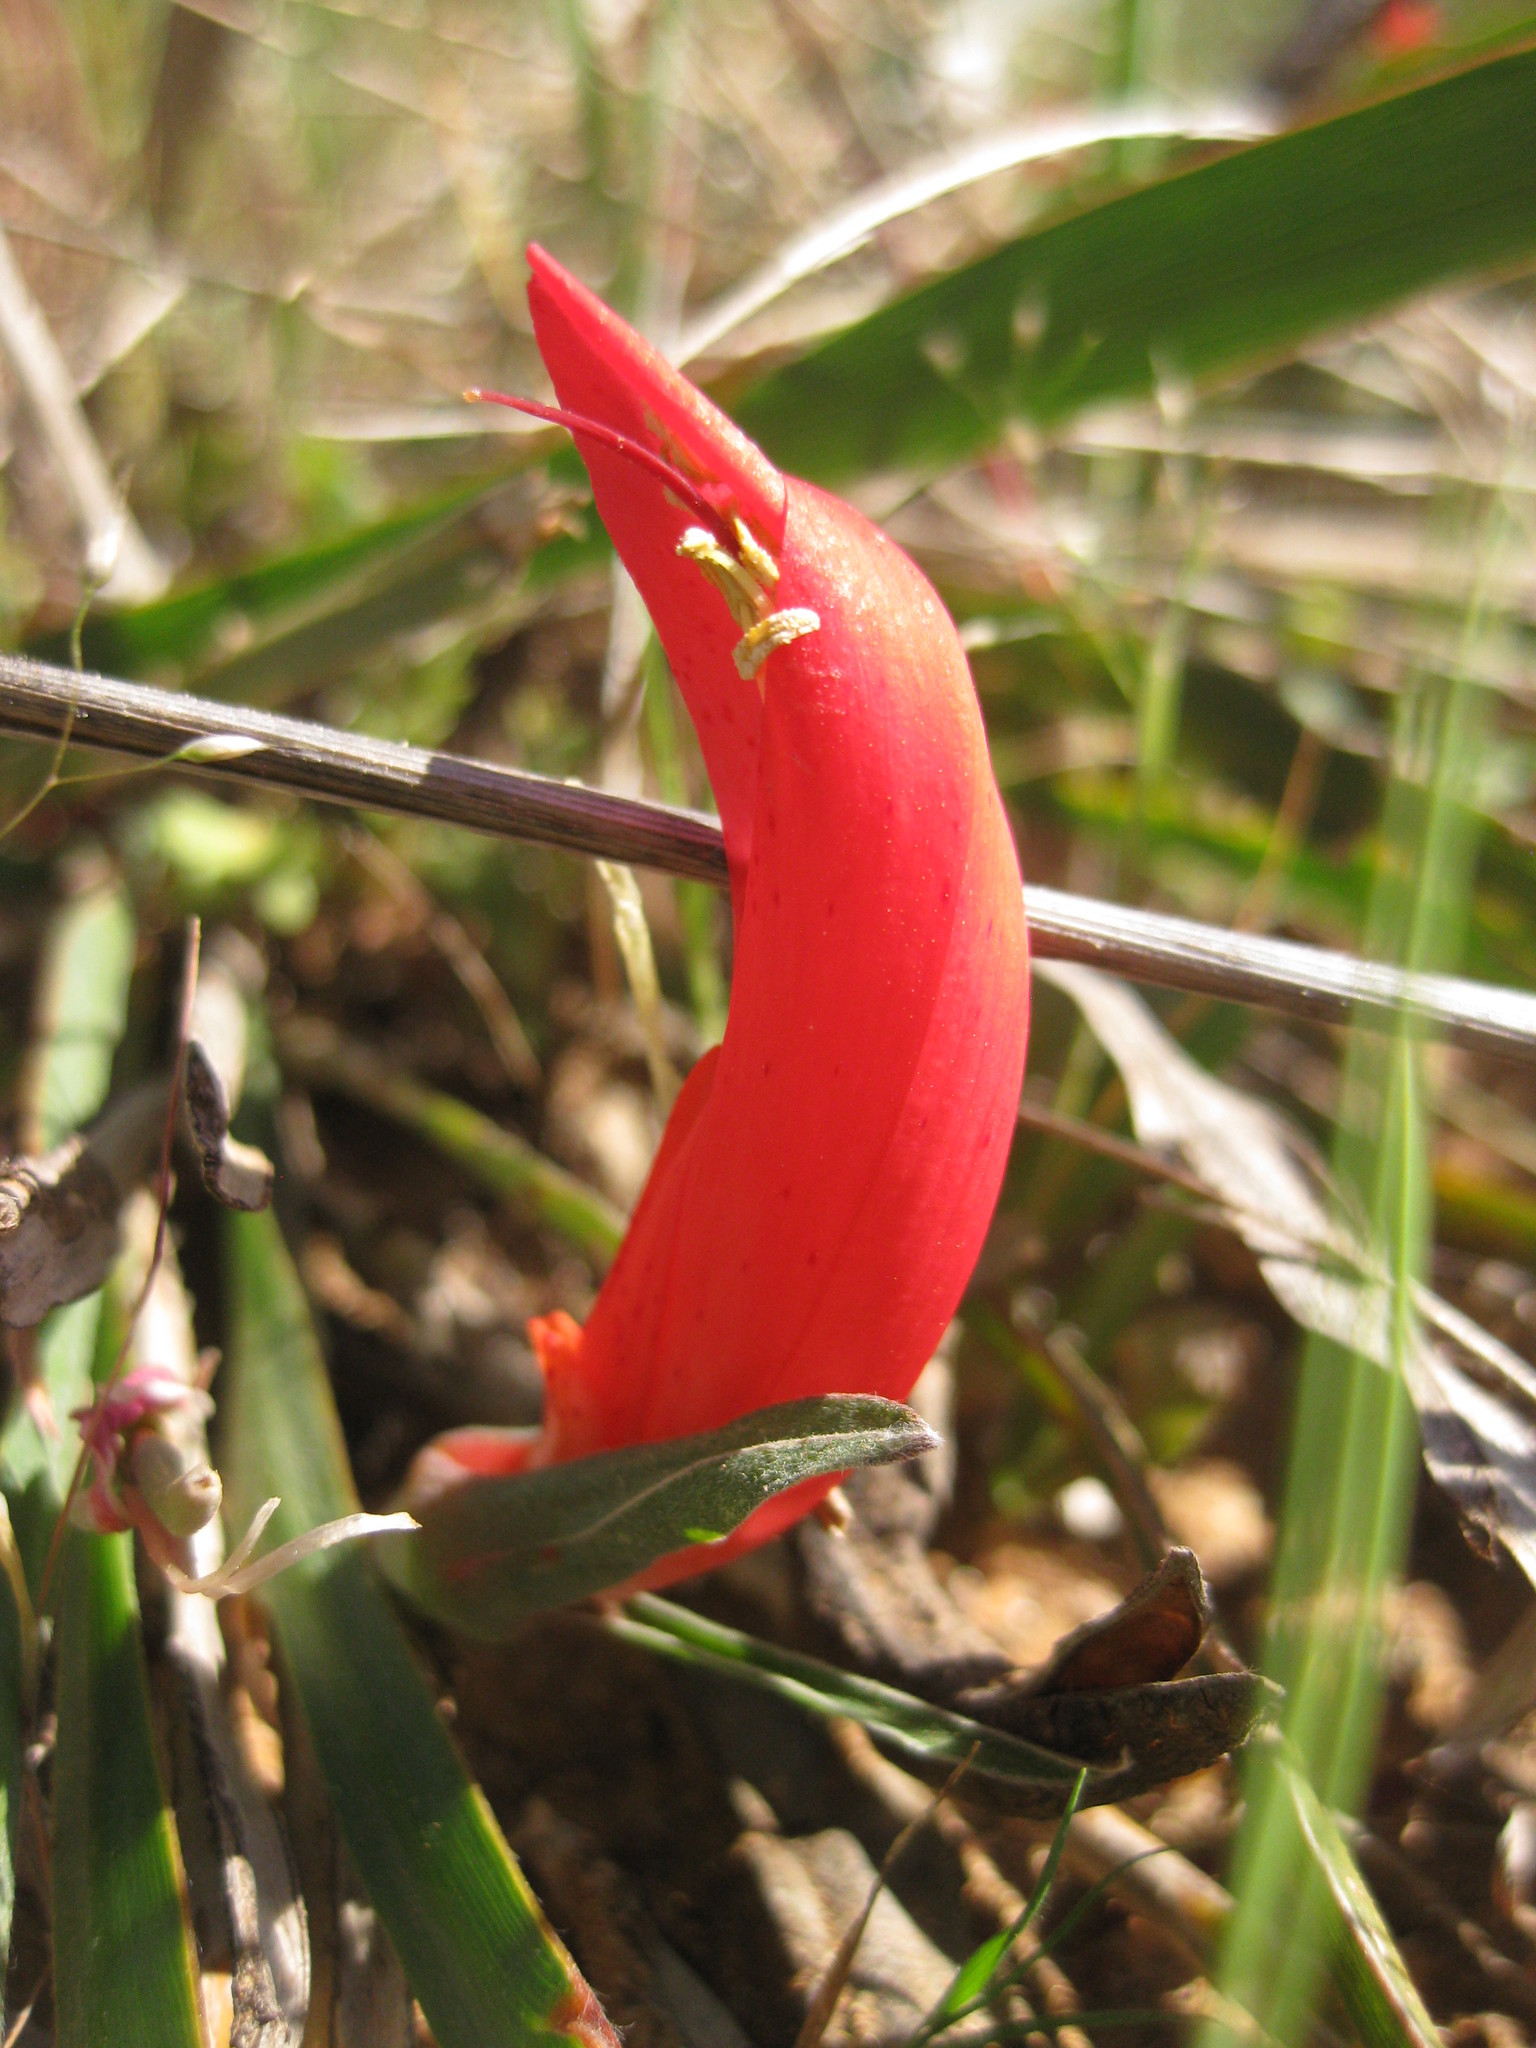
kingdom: Plantae
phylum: Tracheophyta
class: Magnoliopsida
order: Fabales
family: Fabaceae
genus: Leptosema
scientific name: Leptosema aphyllum
